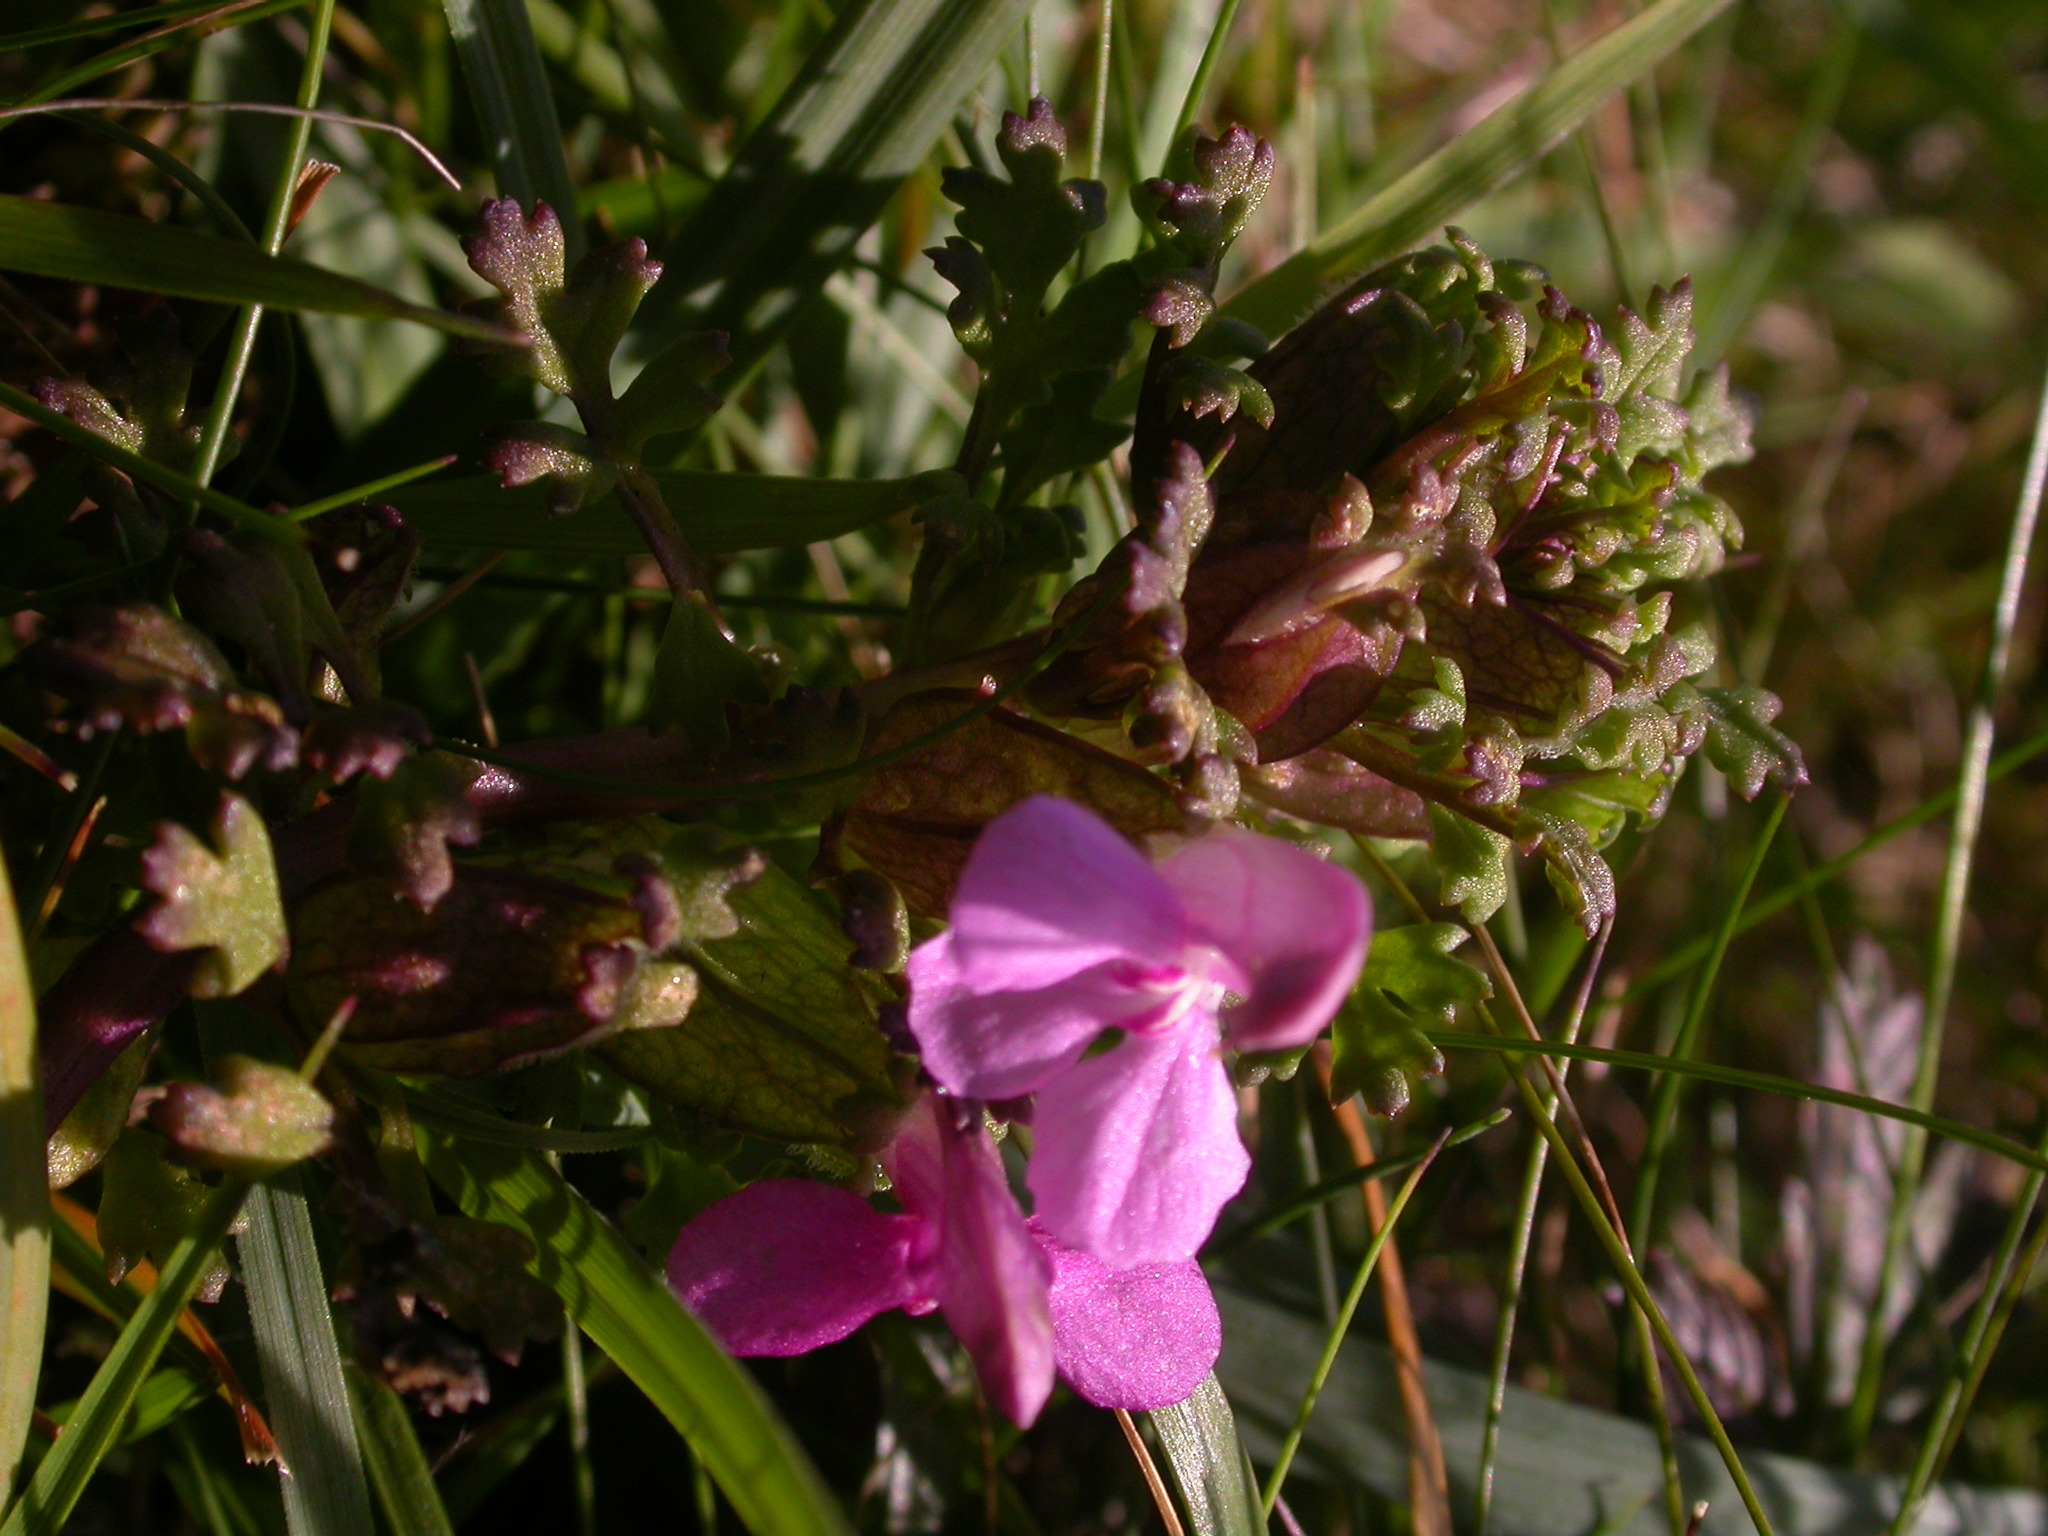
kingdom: Plantae
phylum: Tracheophyta
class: Magnoliopsida
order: Lamiales
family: Orobanchaceae
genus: Pedicularis
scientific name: Pedicularis sylvatica
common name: Lousewort
